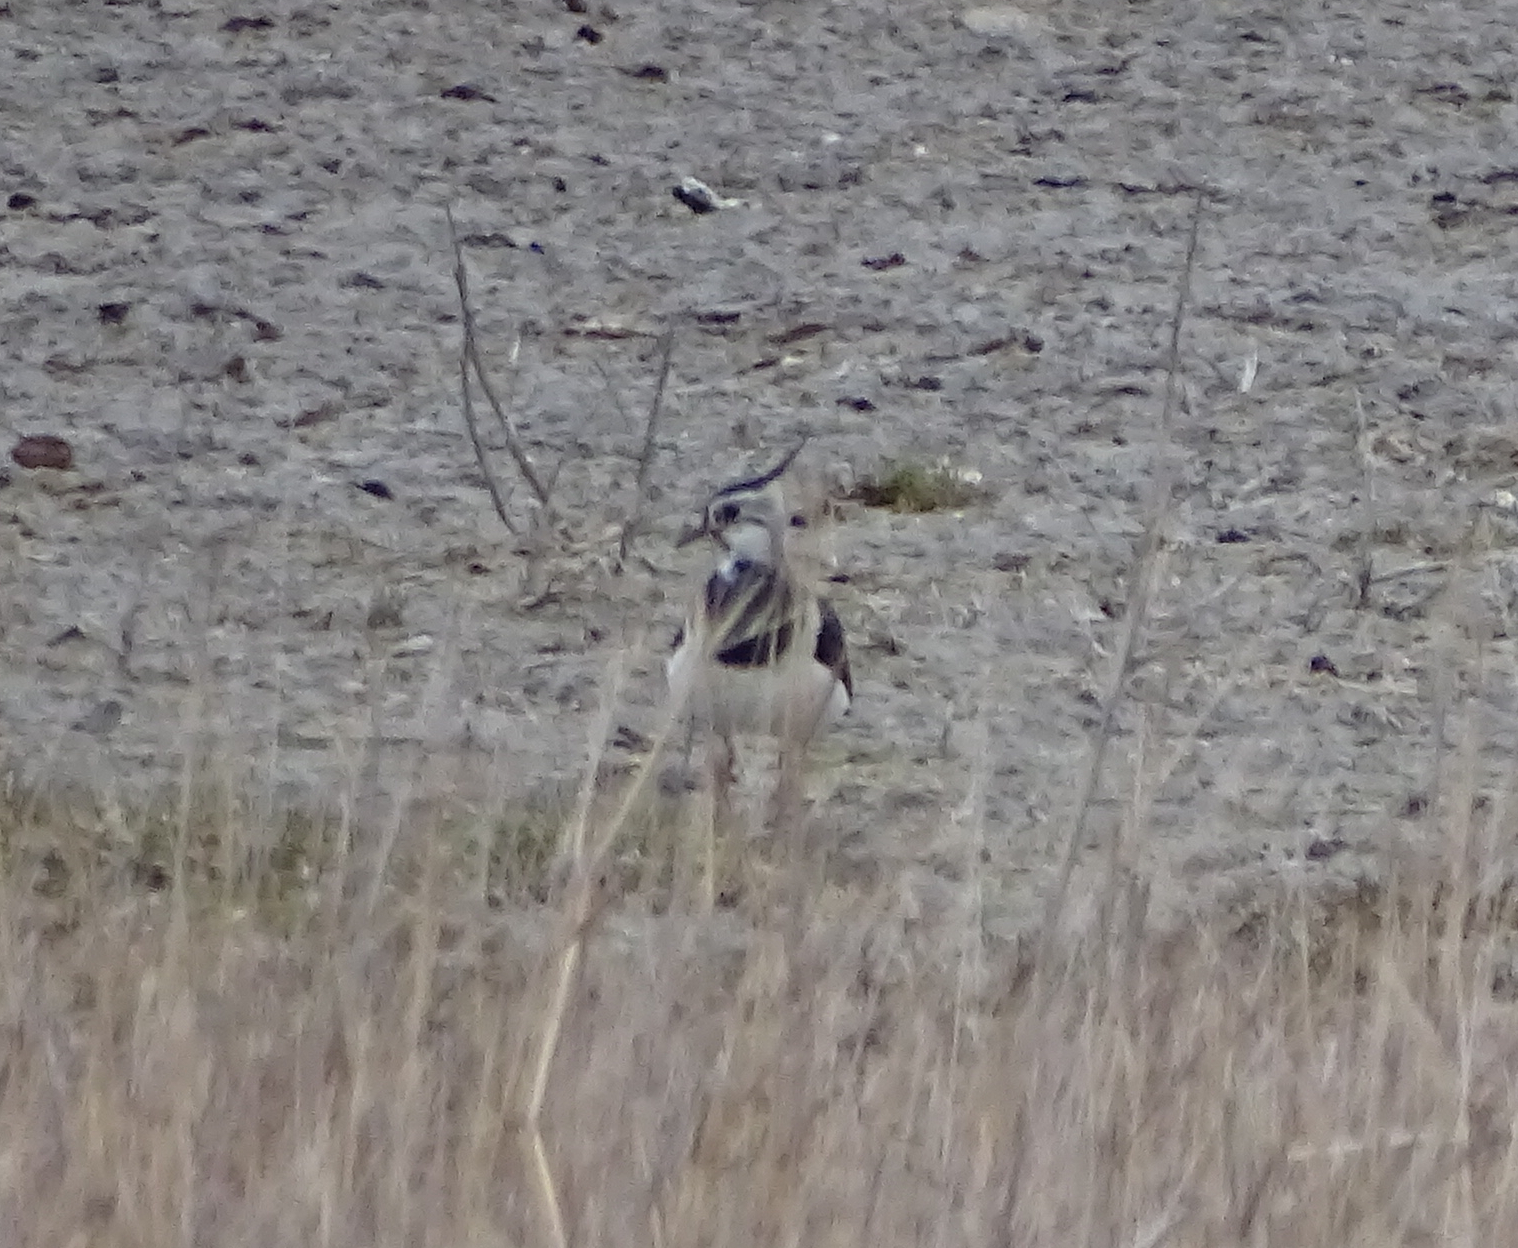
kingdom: Animalia
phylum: Chordata
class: Aves
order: Charadriiformes
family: Charadriidae
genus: Vanellus
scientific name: Vanellus vanellus
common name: Northern lapwing
